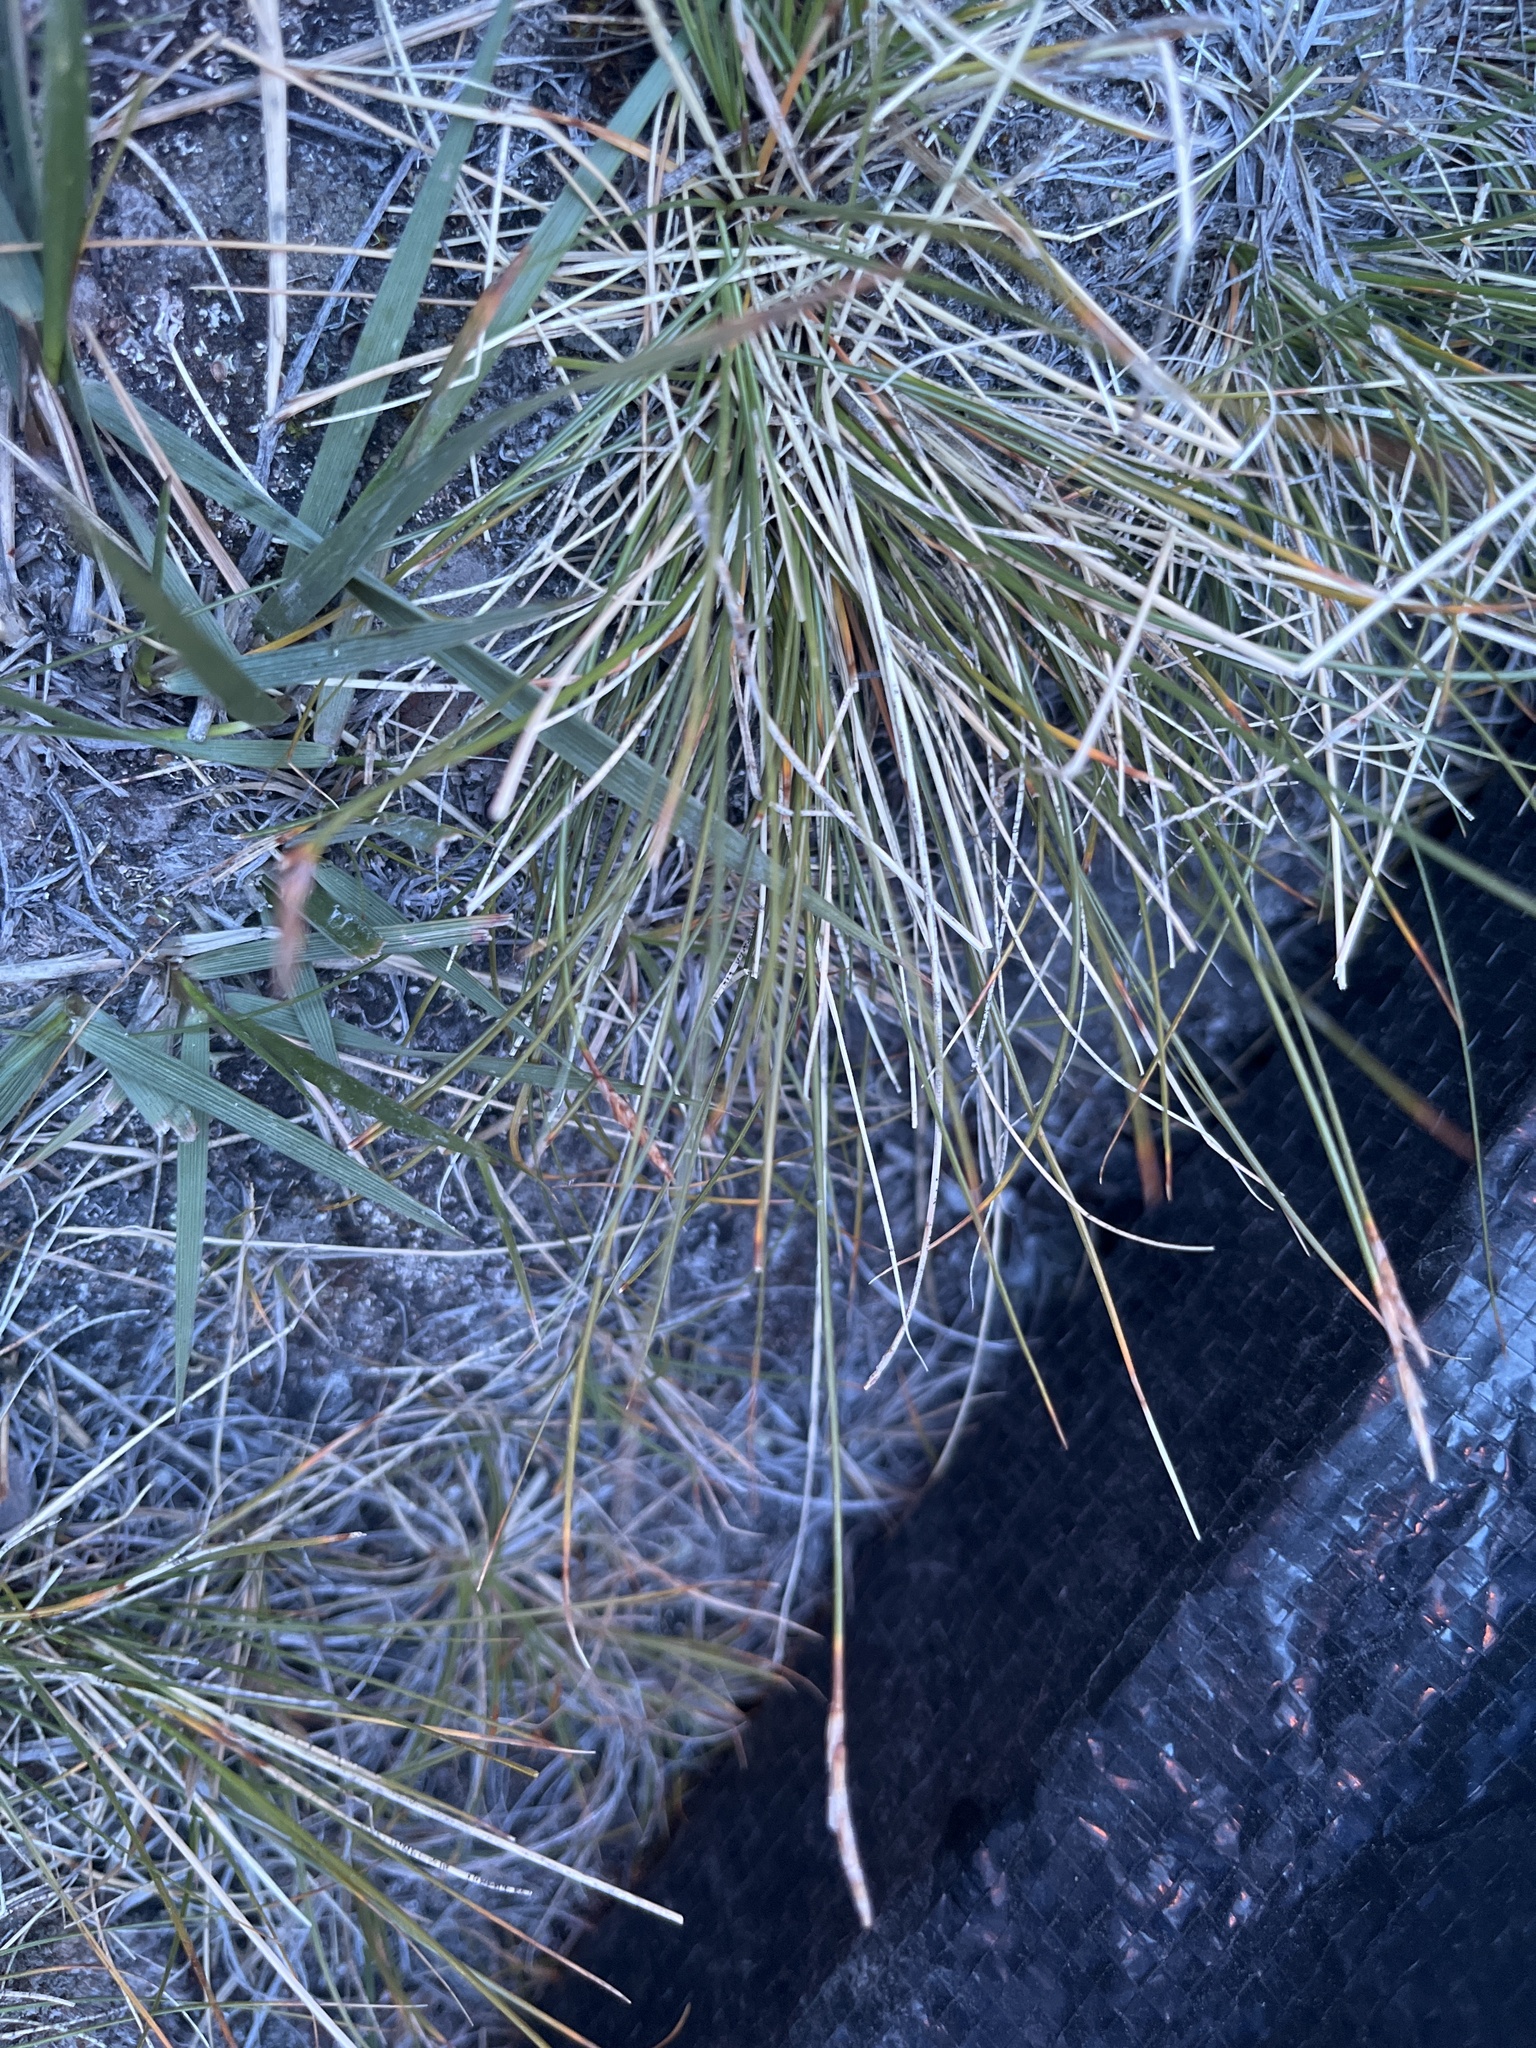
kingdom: Plantae
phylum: Tracheophyta
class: Liliopsida
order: Poales
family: Cyperaceae
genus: Carex
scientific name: Carex myosuroides
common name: Bellard's bog sedge
